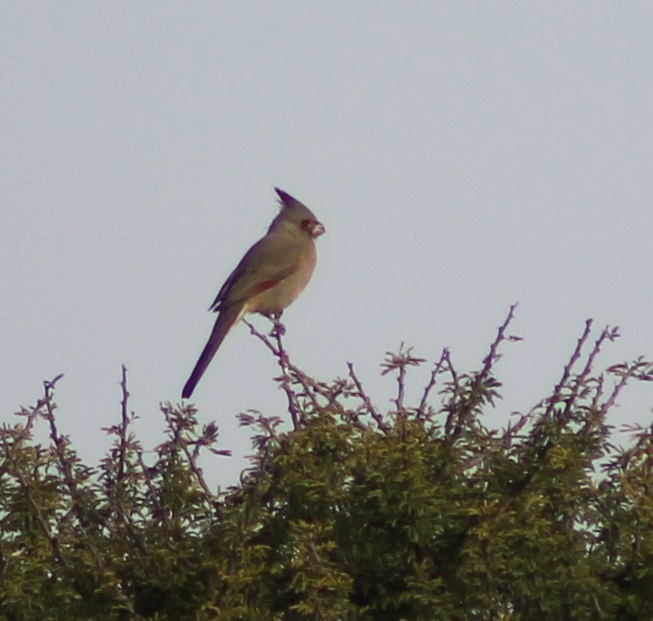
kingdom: Animalia
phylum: Chordata
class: Aves
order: Passeriformes
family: Cardinalidae
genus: Cardinalis
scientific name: Cardinalis sinuatus
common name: Pyrrhuloxia
